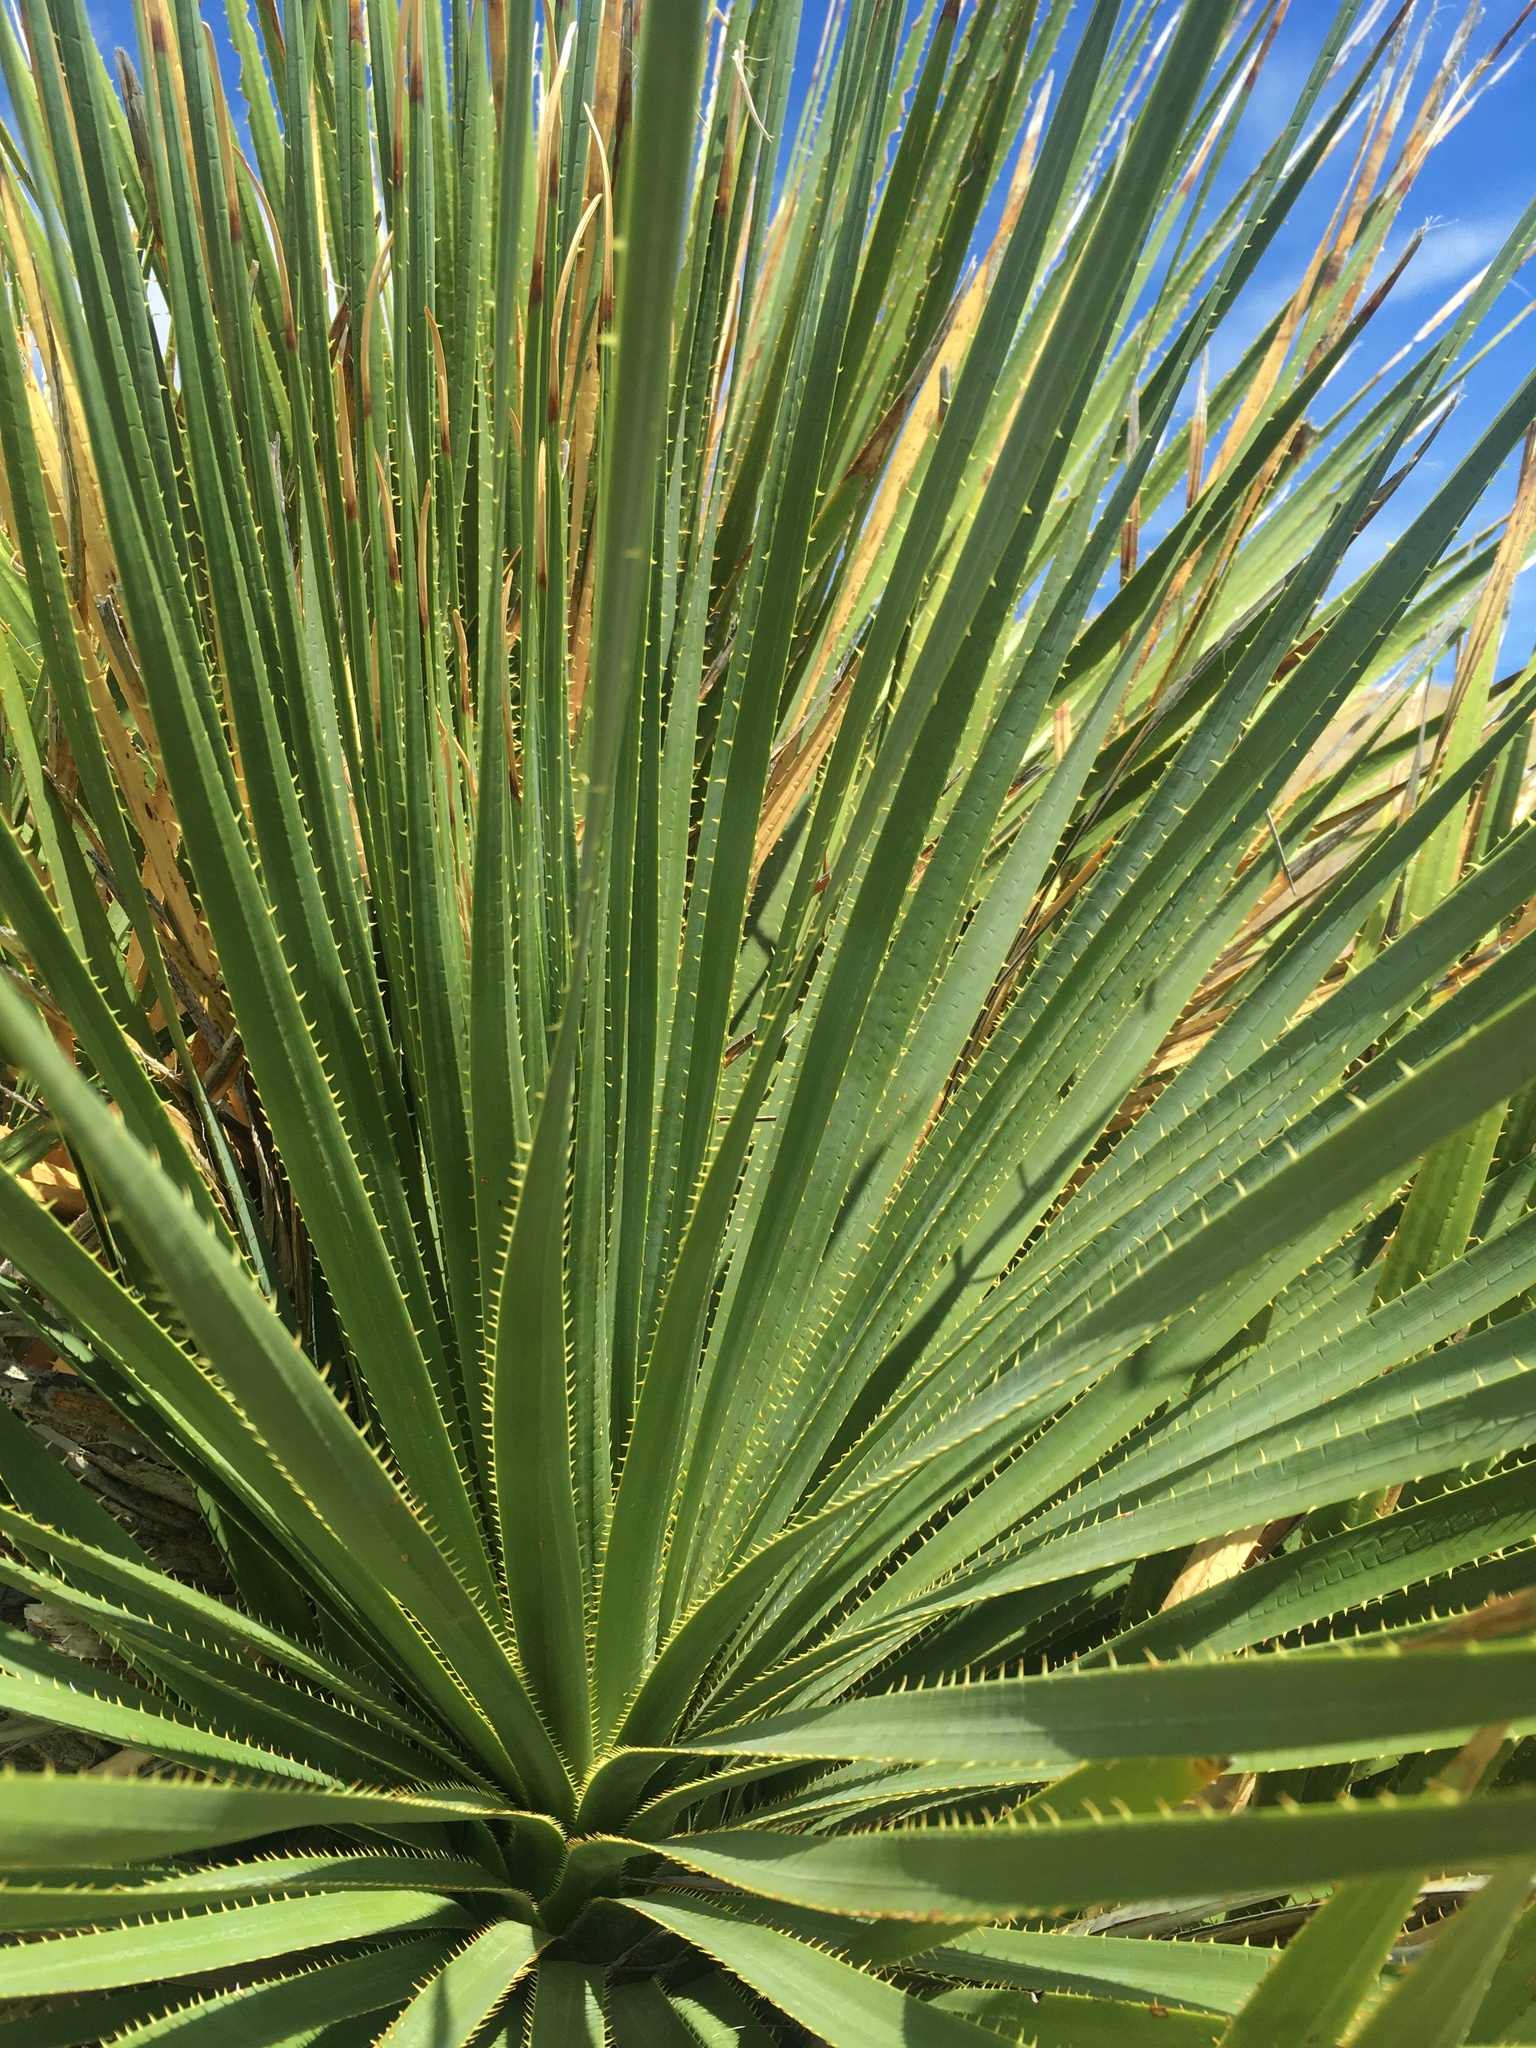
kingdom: Plantae
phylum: Tracheophyta
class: Liliopsida
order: Asparagales
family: Asparagaceae
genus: Dasylirion
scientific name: Dasylirion wheeleri
